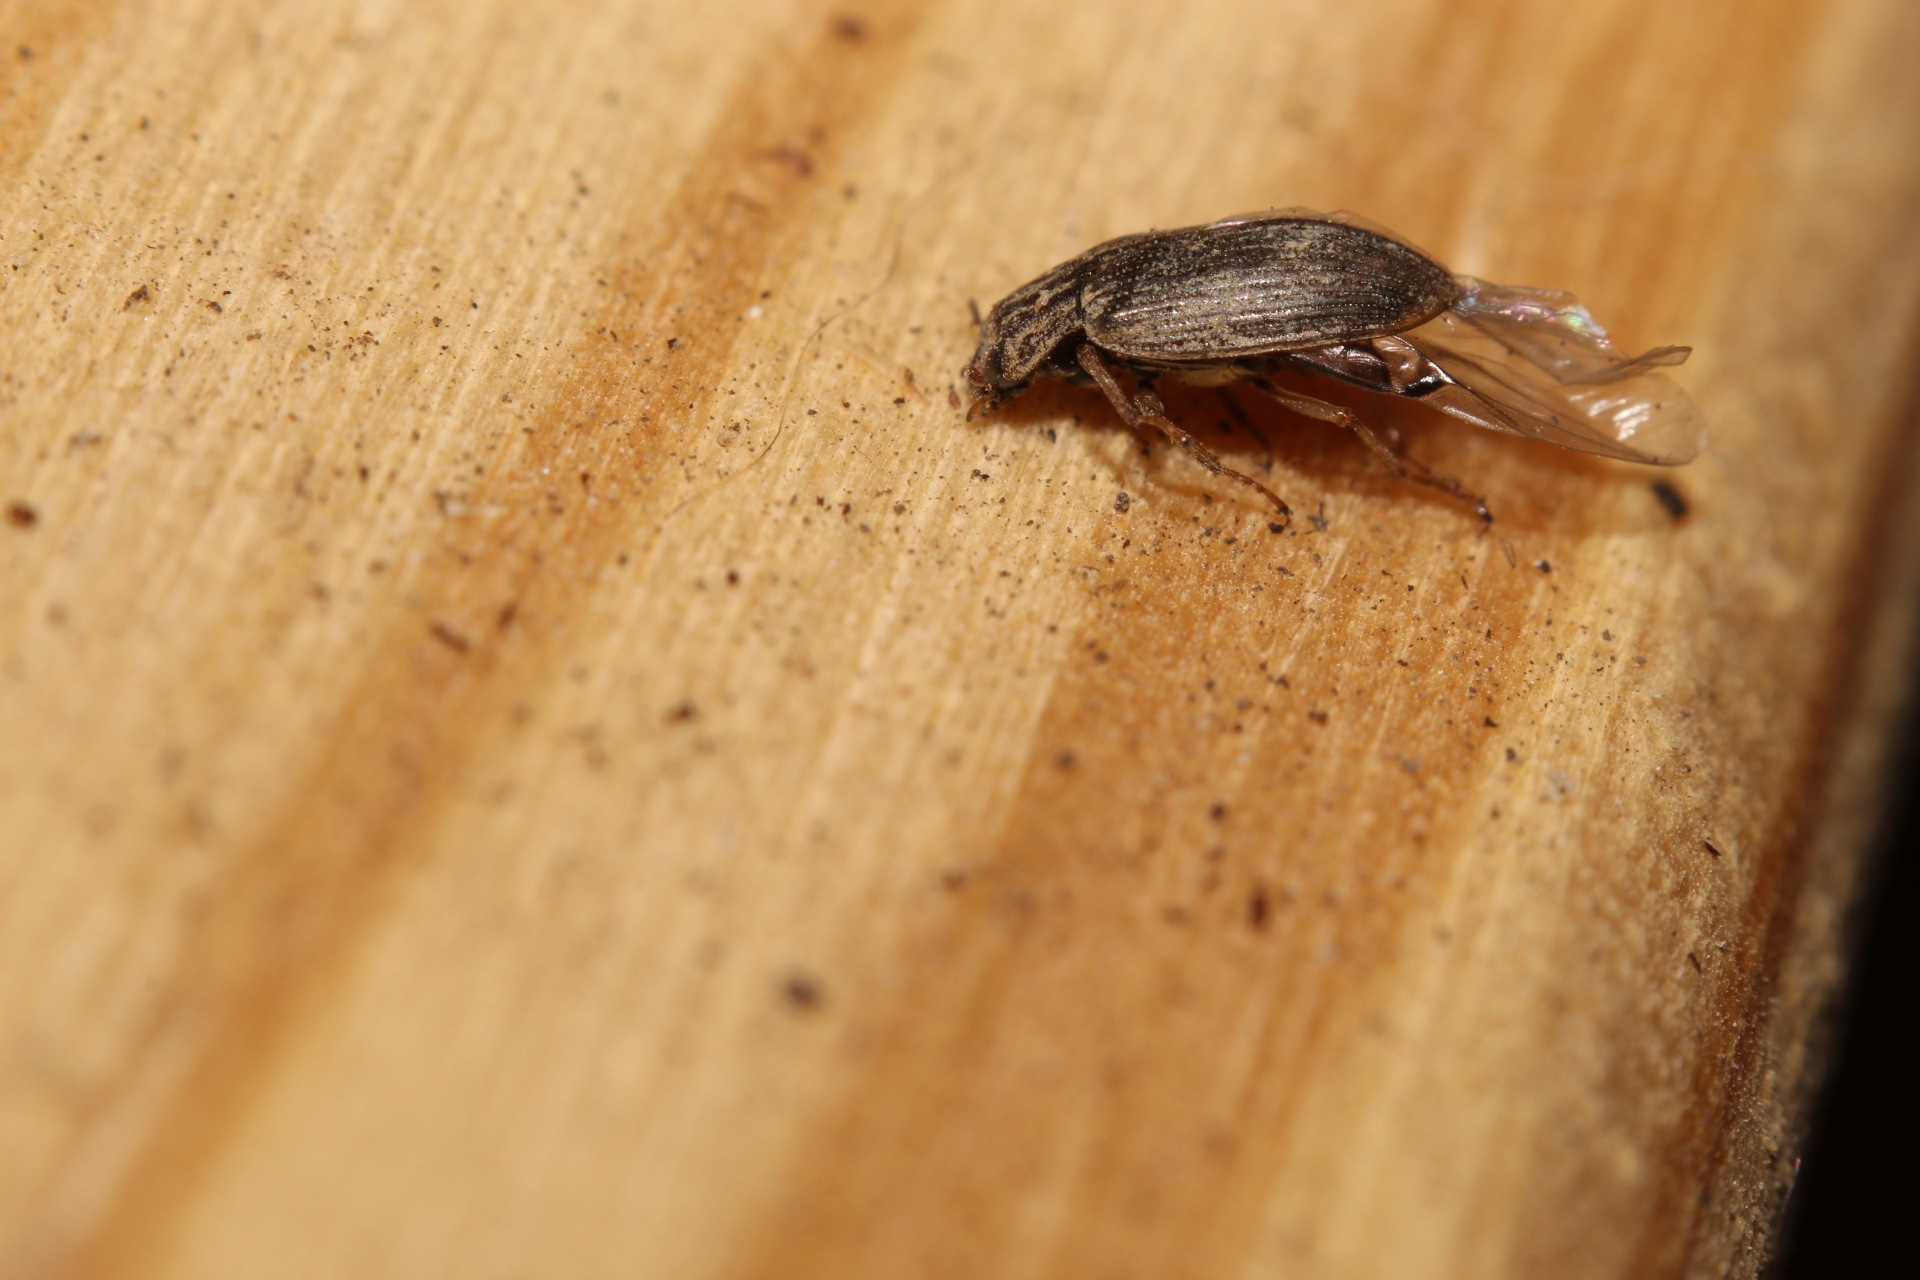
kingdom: Animalia
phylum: Arthropoda
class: Insecta
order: Coleoptera
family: Helophoridae
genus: Helophorus
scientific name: Helophorus
